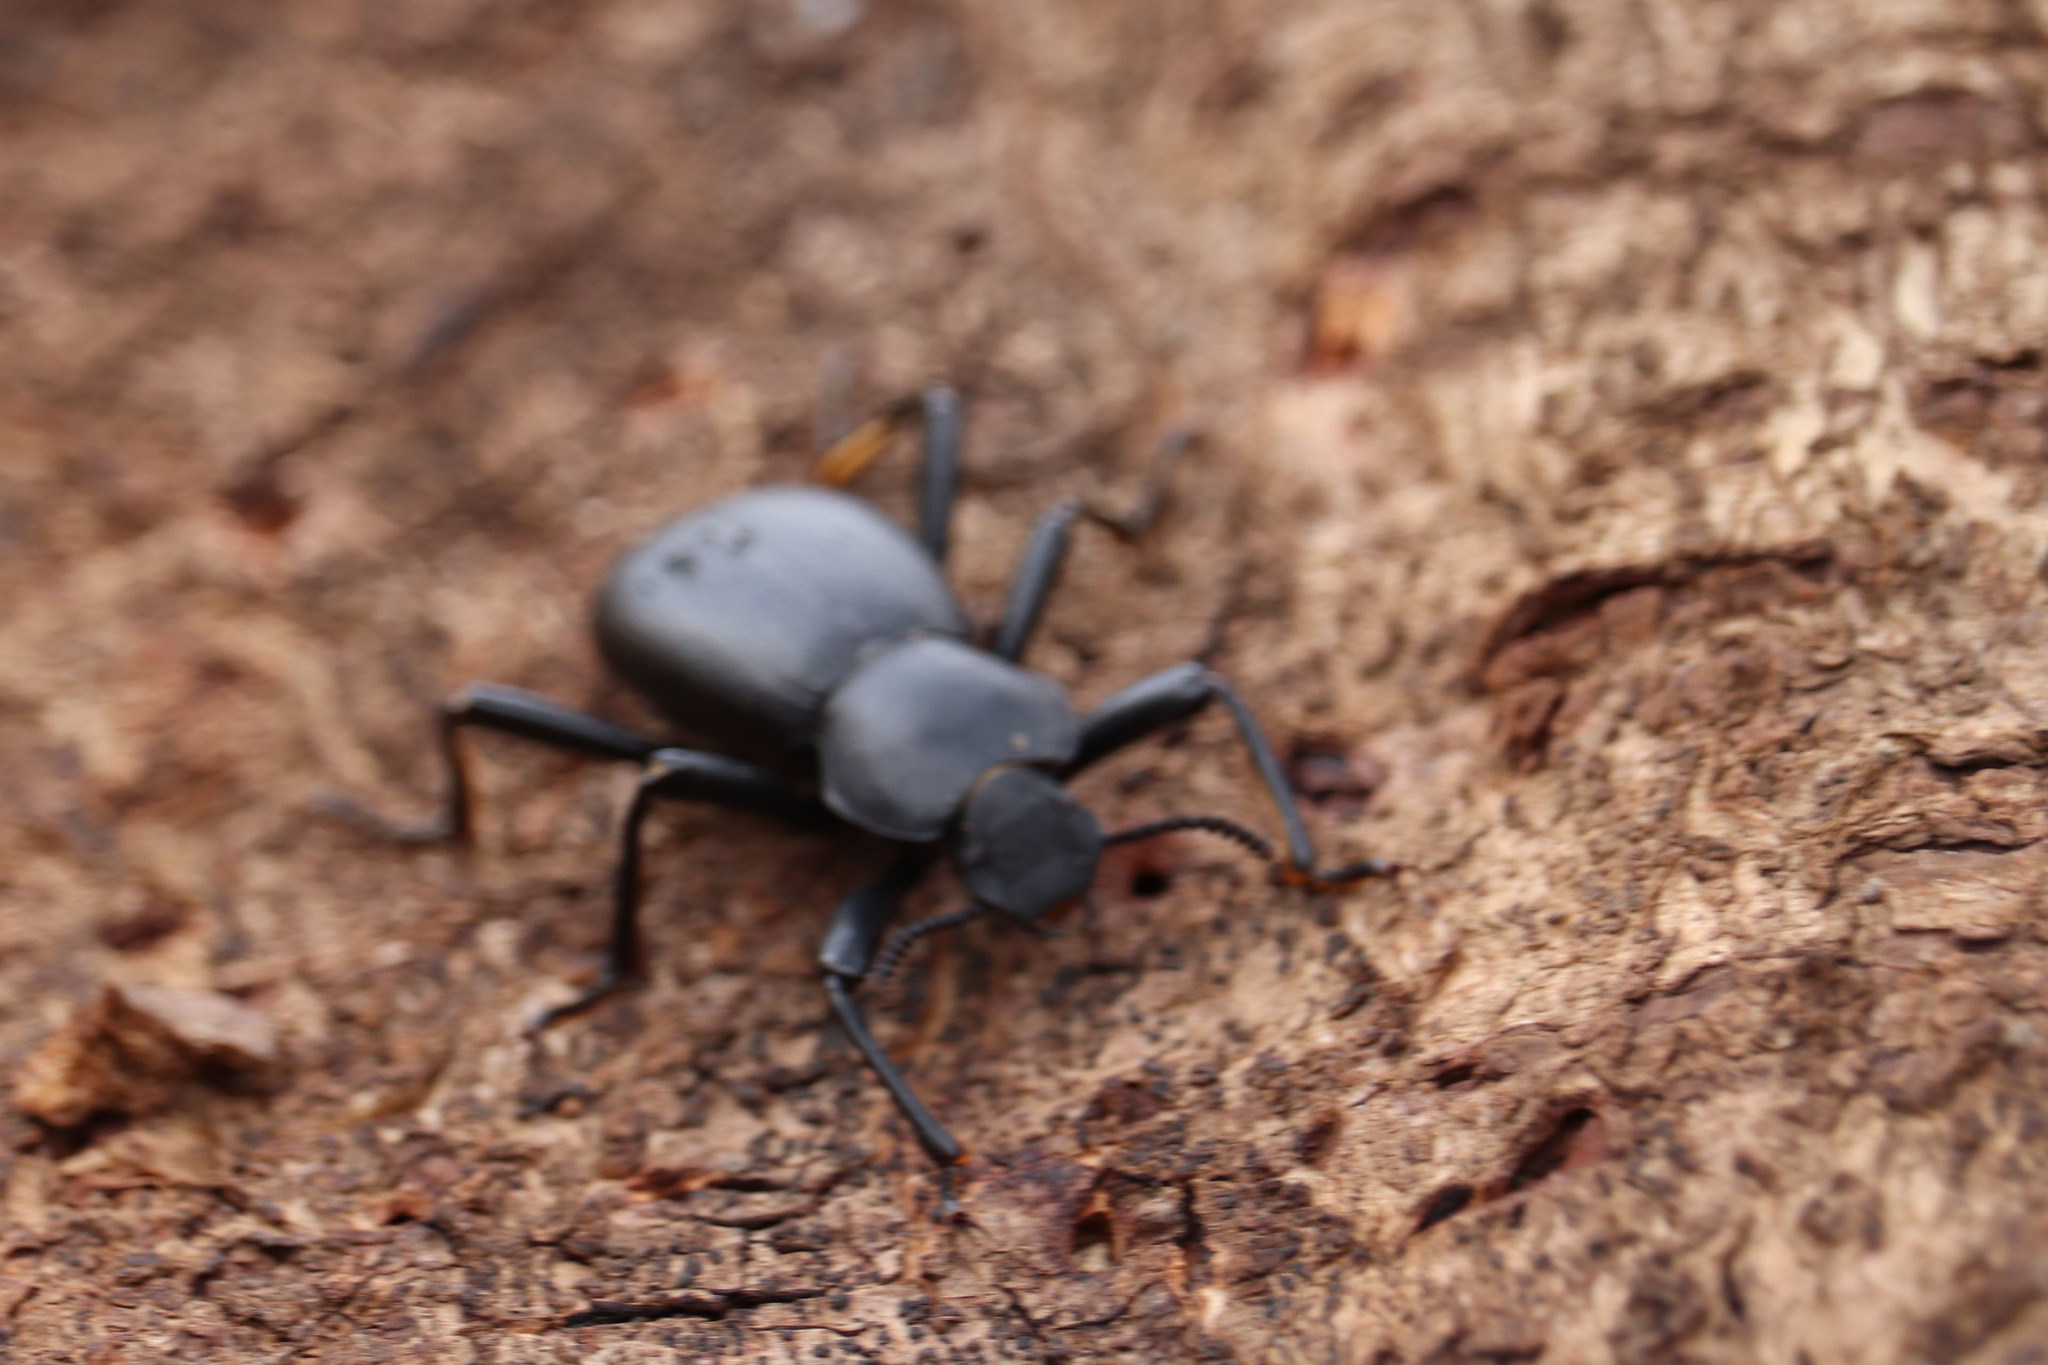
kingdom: Animalia
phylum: Arthropoda
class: Insecta
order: Coleoptera
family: Tenebrionidae
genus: Coelocnemis
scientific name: Coelocnemis dilaticollis
